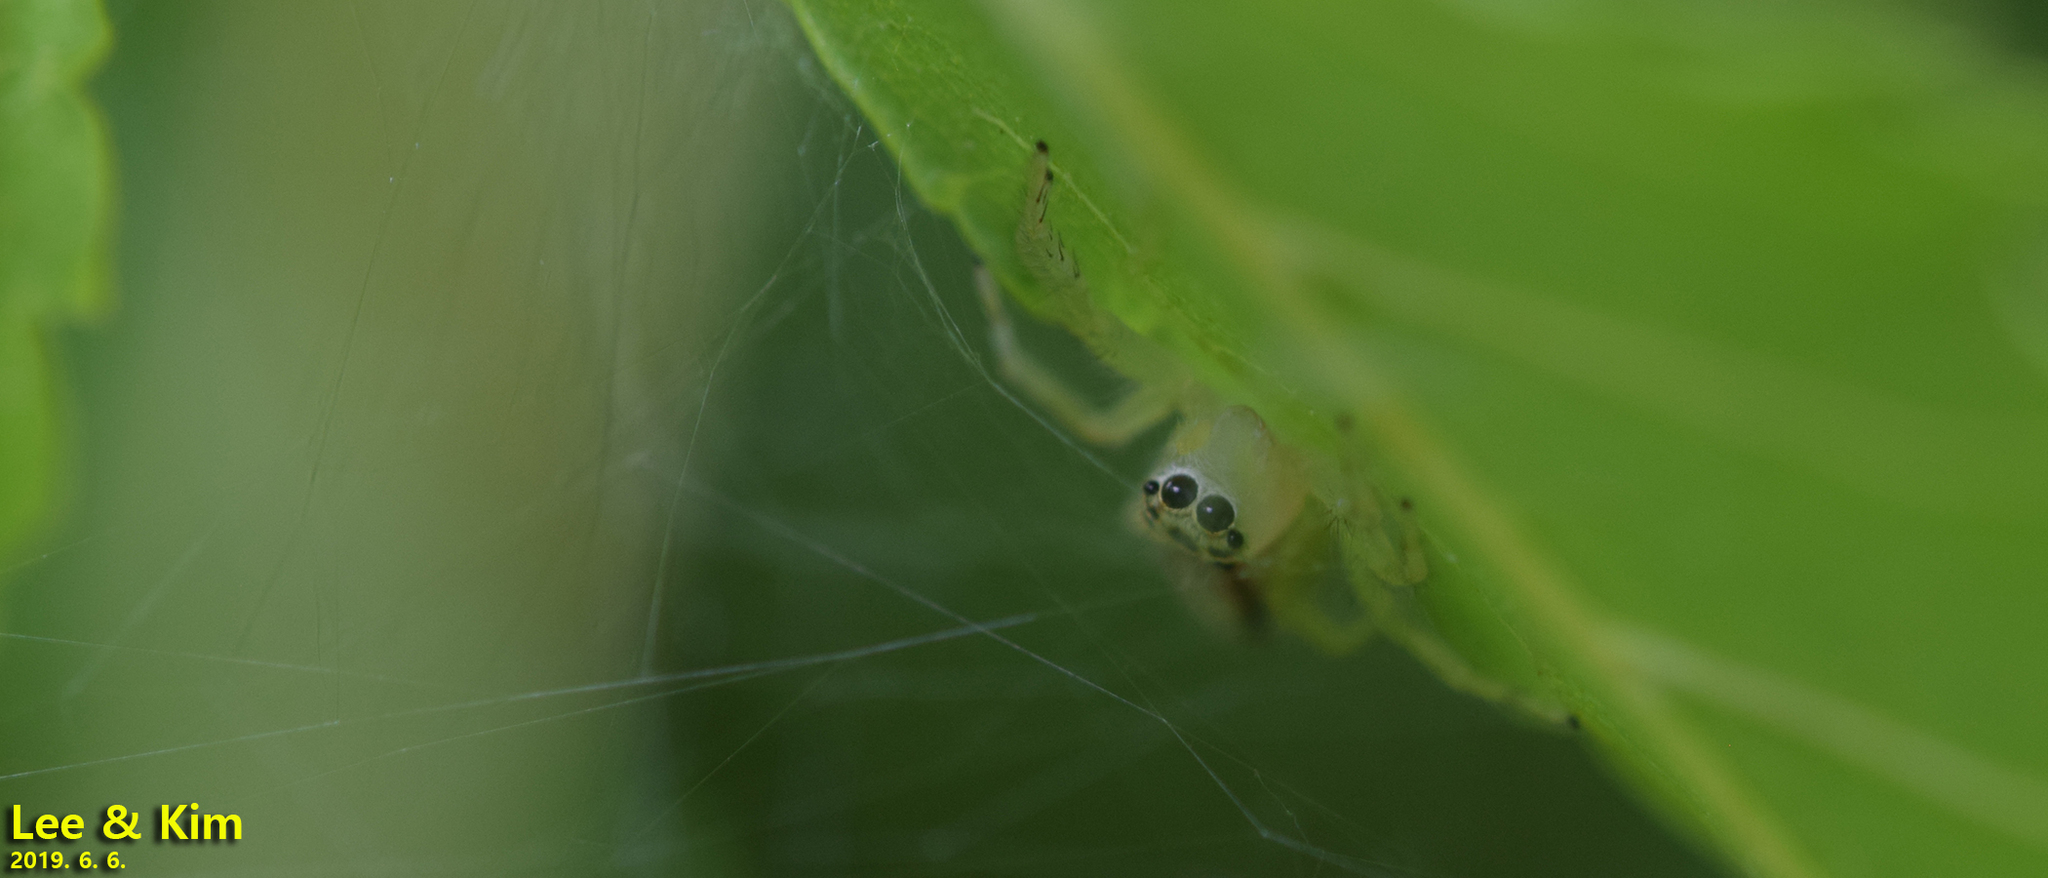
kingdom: Animalia
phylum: Arthropoda
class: Arachnida
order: Araneae
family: Salticidae
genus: Telamonia
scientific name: Telamonia vlijmi
